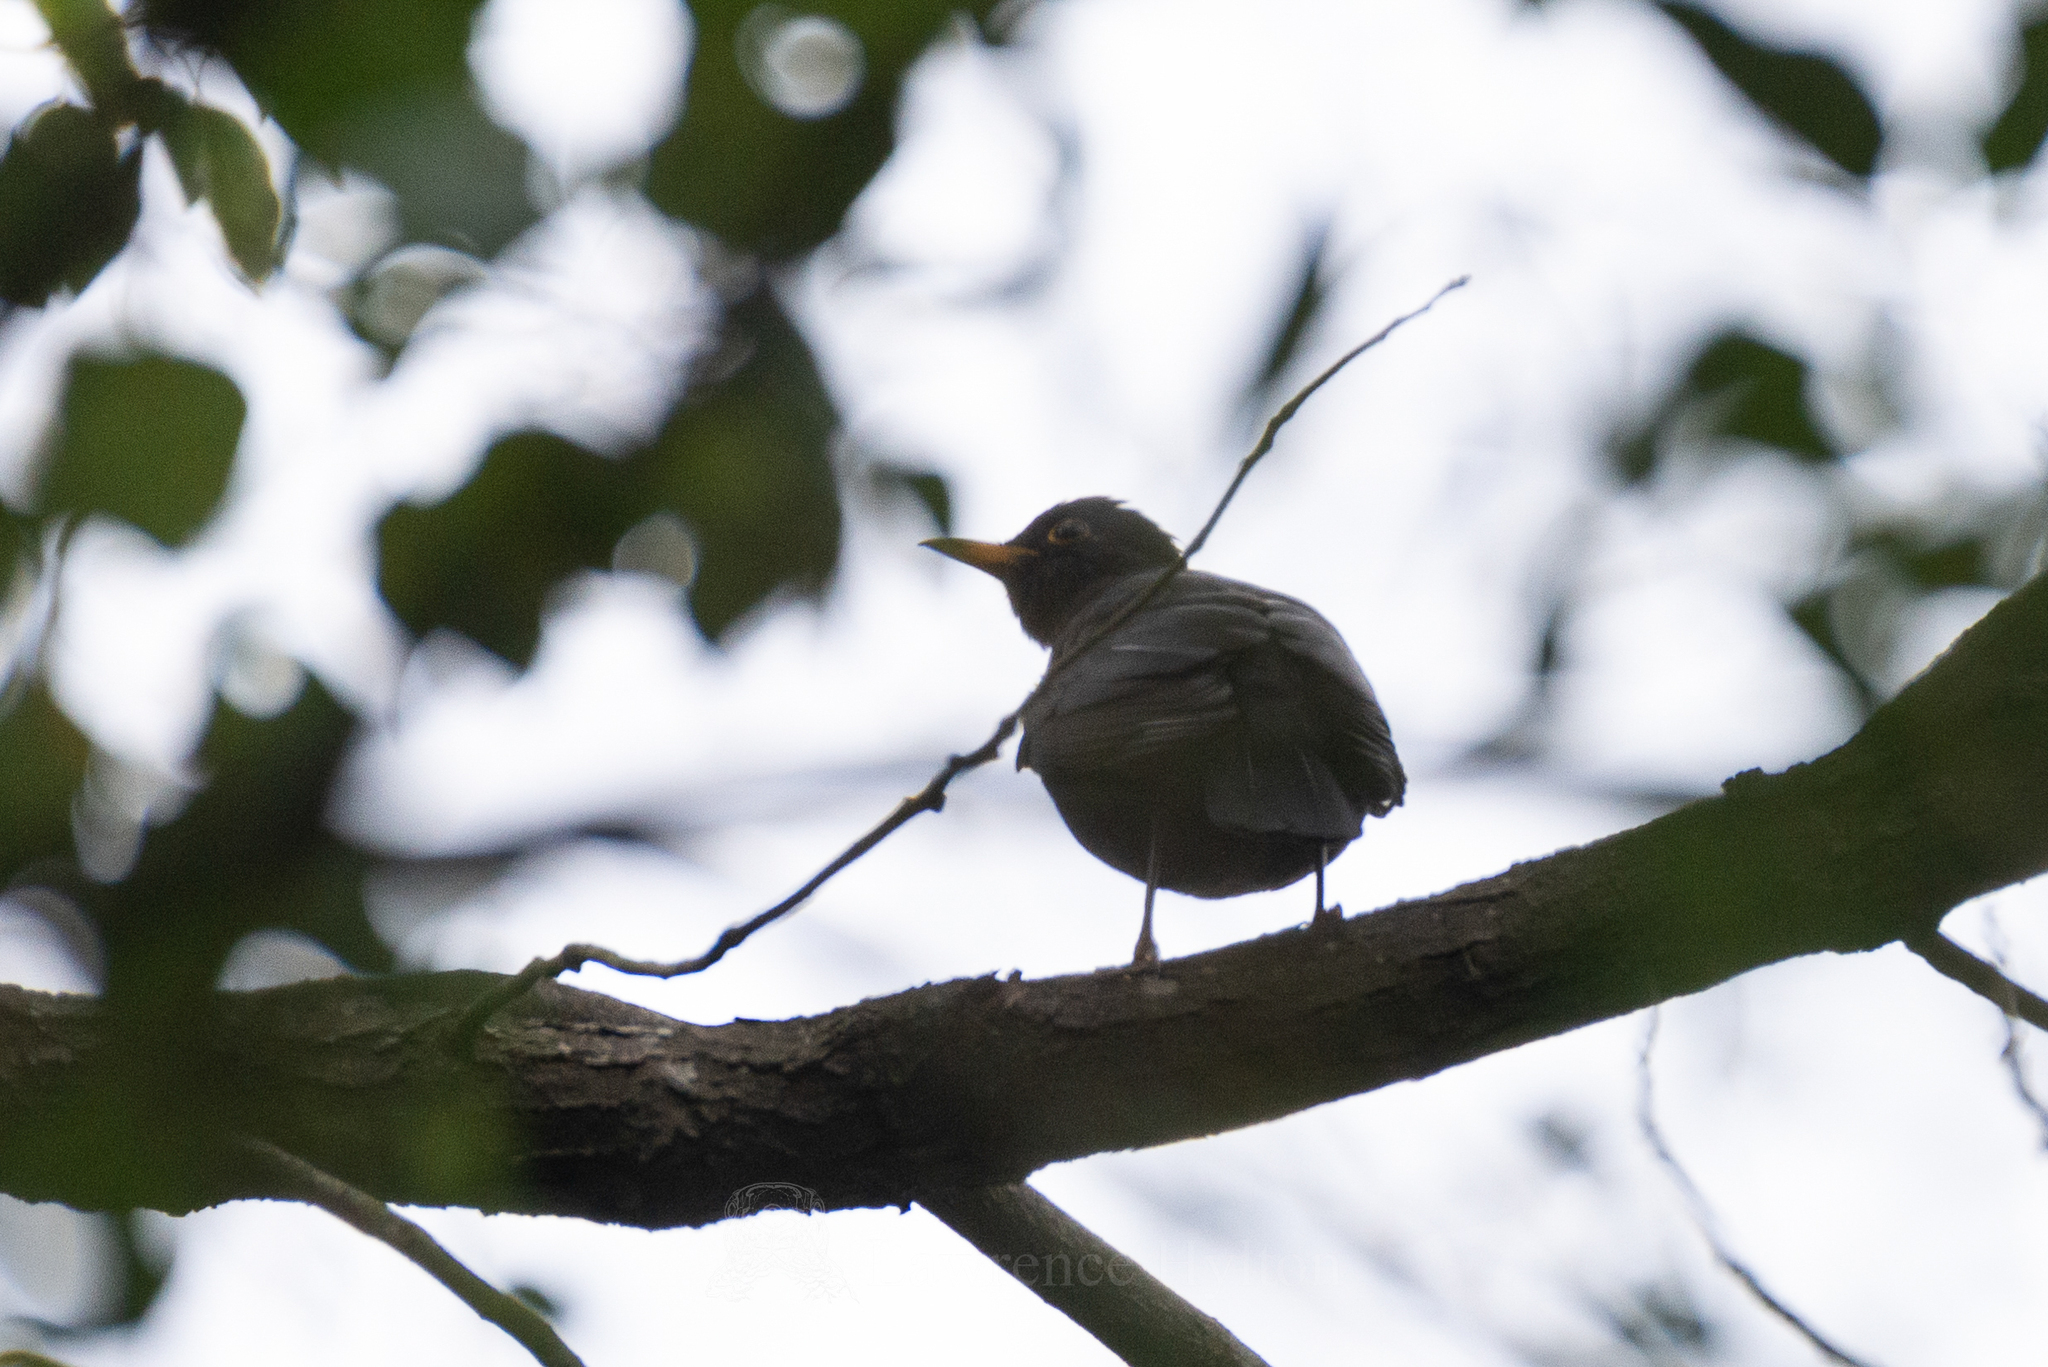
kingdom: Animalia
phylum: Chordata
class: Aves
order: Passeriformes
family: Turdidae
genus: Turdus
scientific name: Turdus mandarinus
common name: Chinese blackbird
